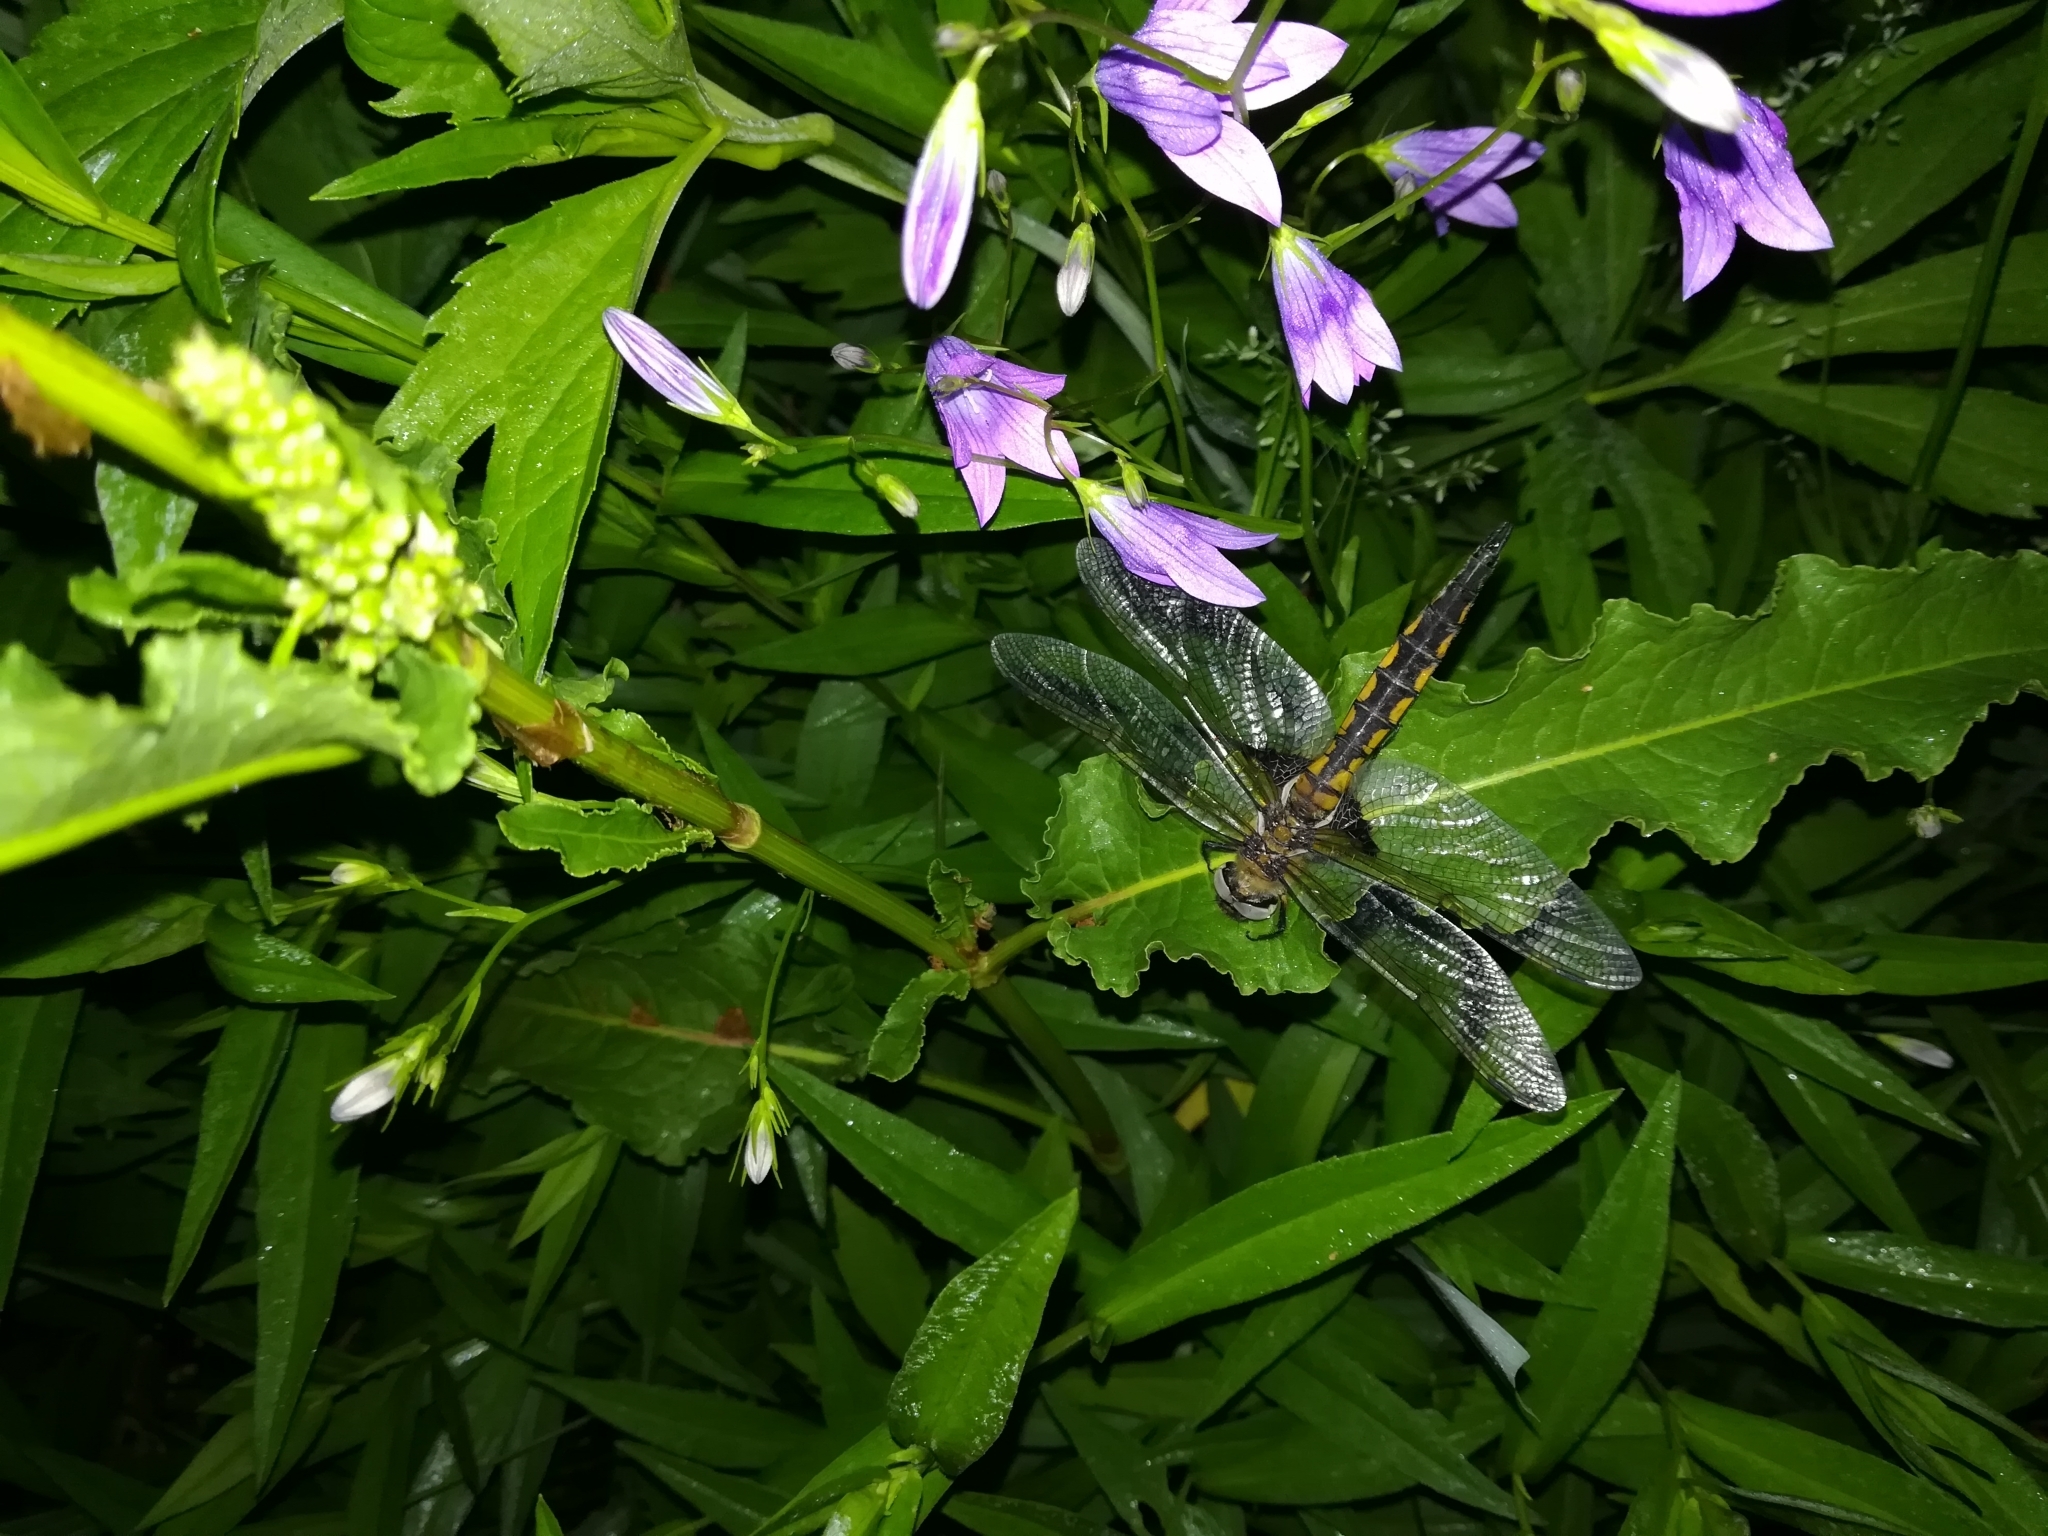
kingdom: Animalia
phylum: Arthropoda
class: Insecta
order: Odonata
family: Corduliidae
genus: Epitheca
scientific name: Epitheca bimaculata
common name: Eurasian baskettail
